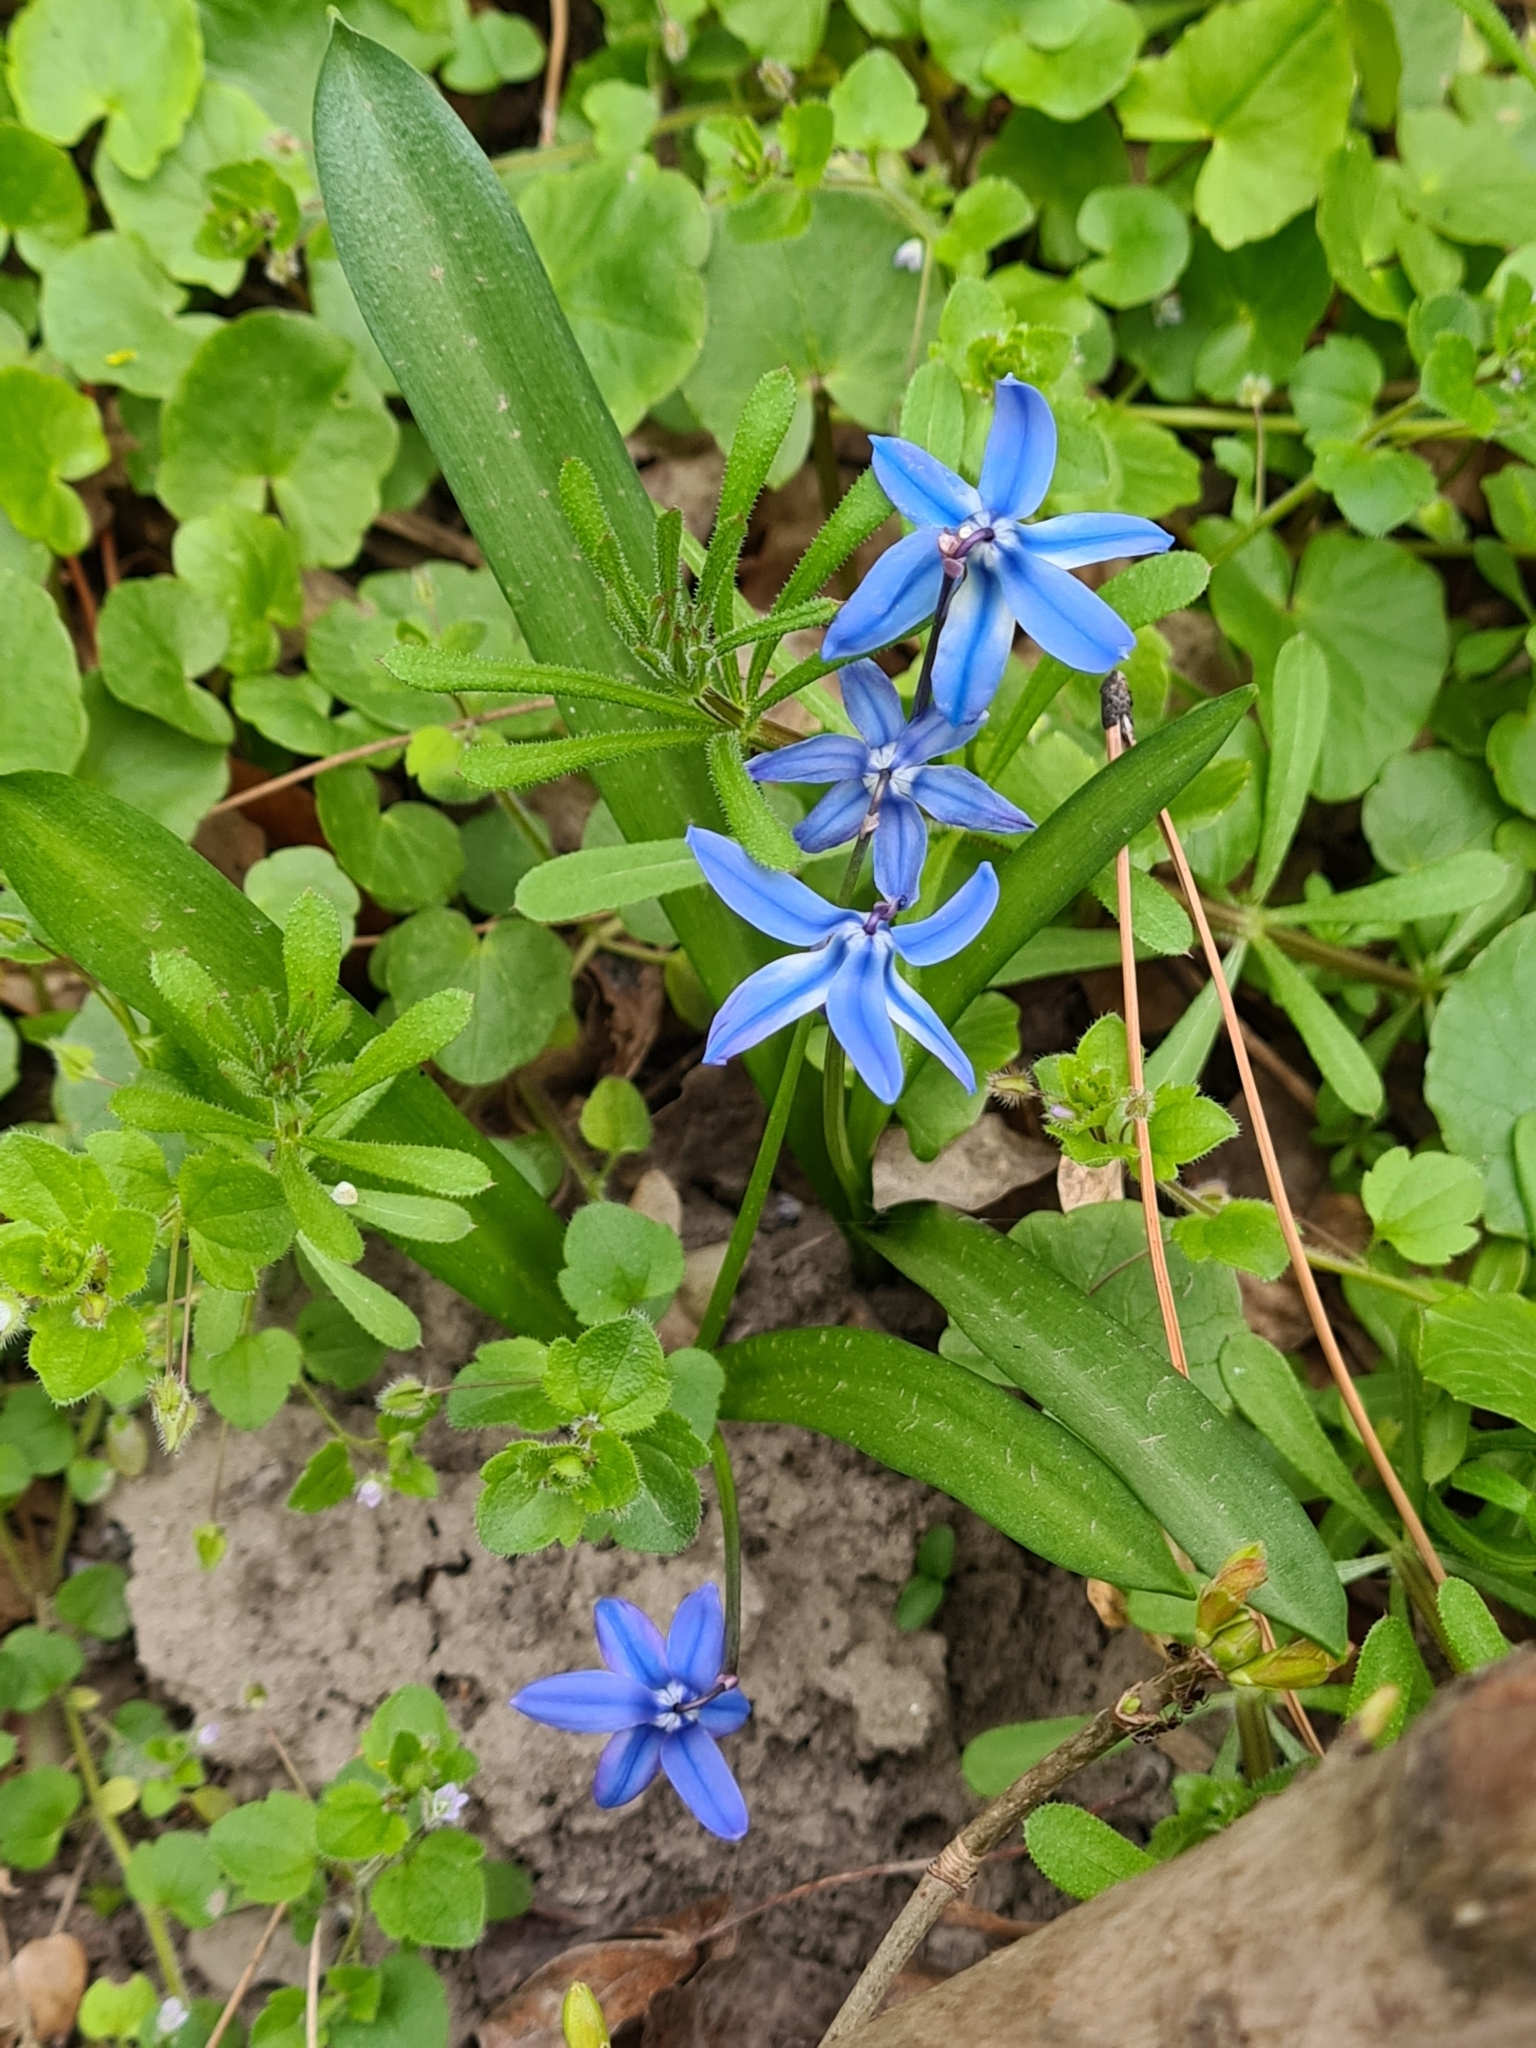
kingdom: Plantae
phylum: Tracheophyta
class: Liliopsida
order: Asparagales
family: Asparagaceae
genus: Scilla
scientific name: Scilla siberica
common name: Siberian squill
